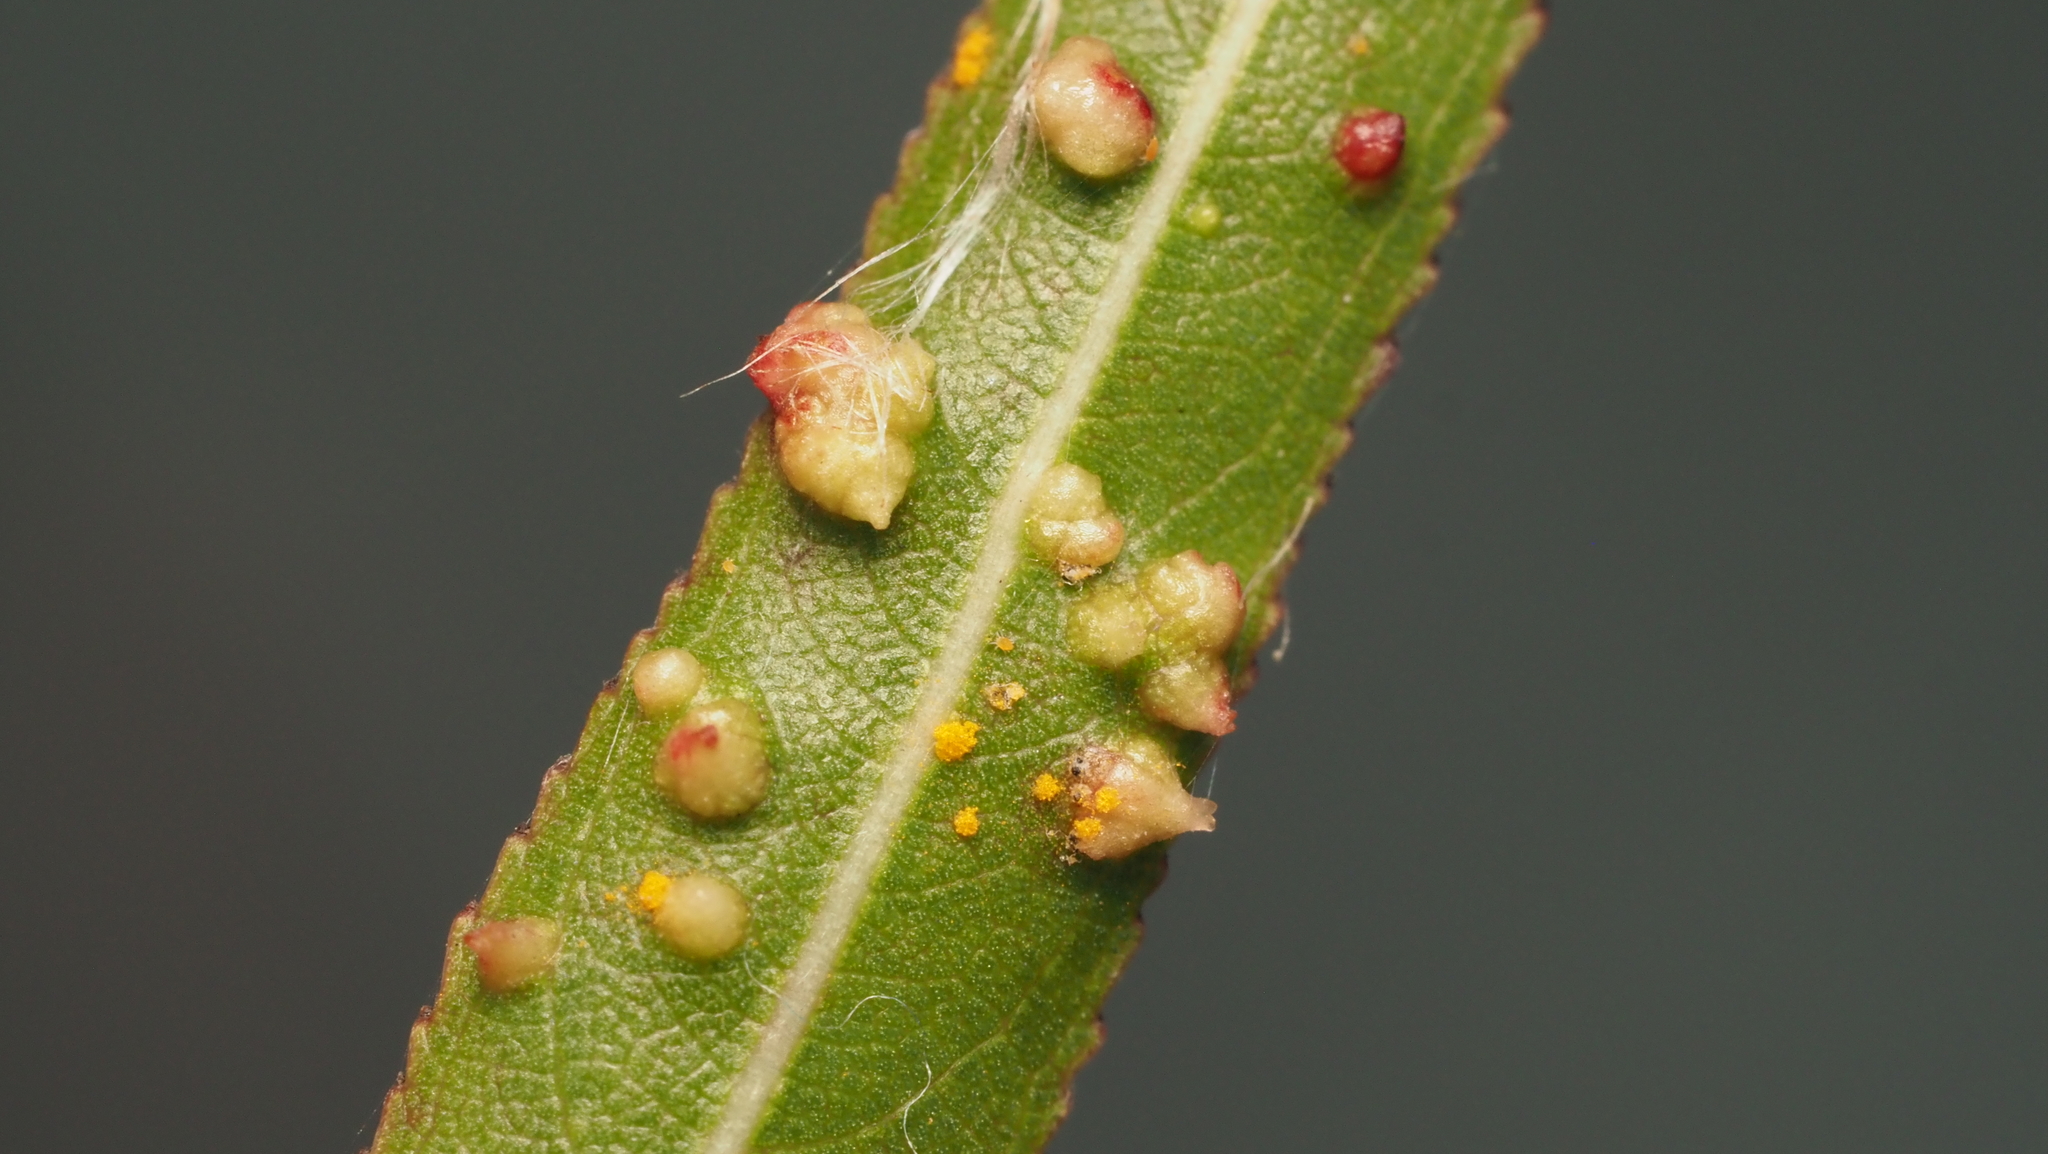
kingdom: Animalia
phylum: Arthropoda
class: Arachnida
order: Trombidiformes
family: Eriophyidae
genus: Aculus
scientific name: Aculus tetanothrix
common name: Willow bead gall mite
